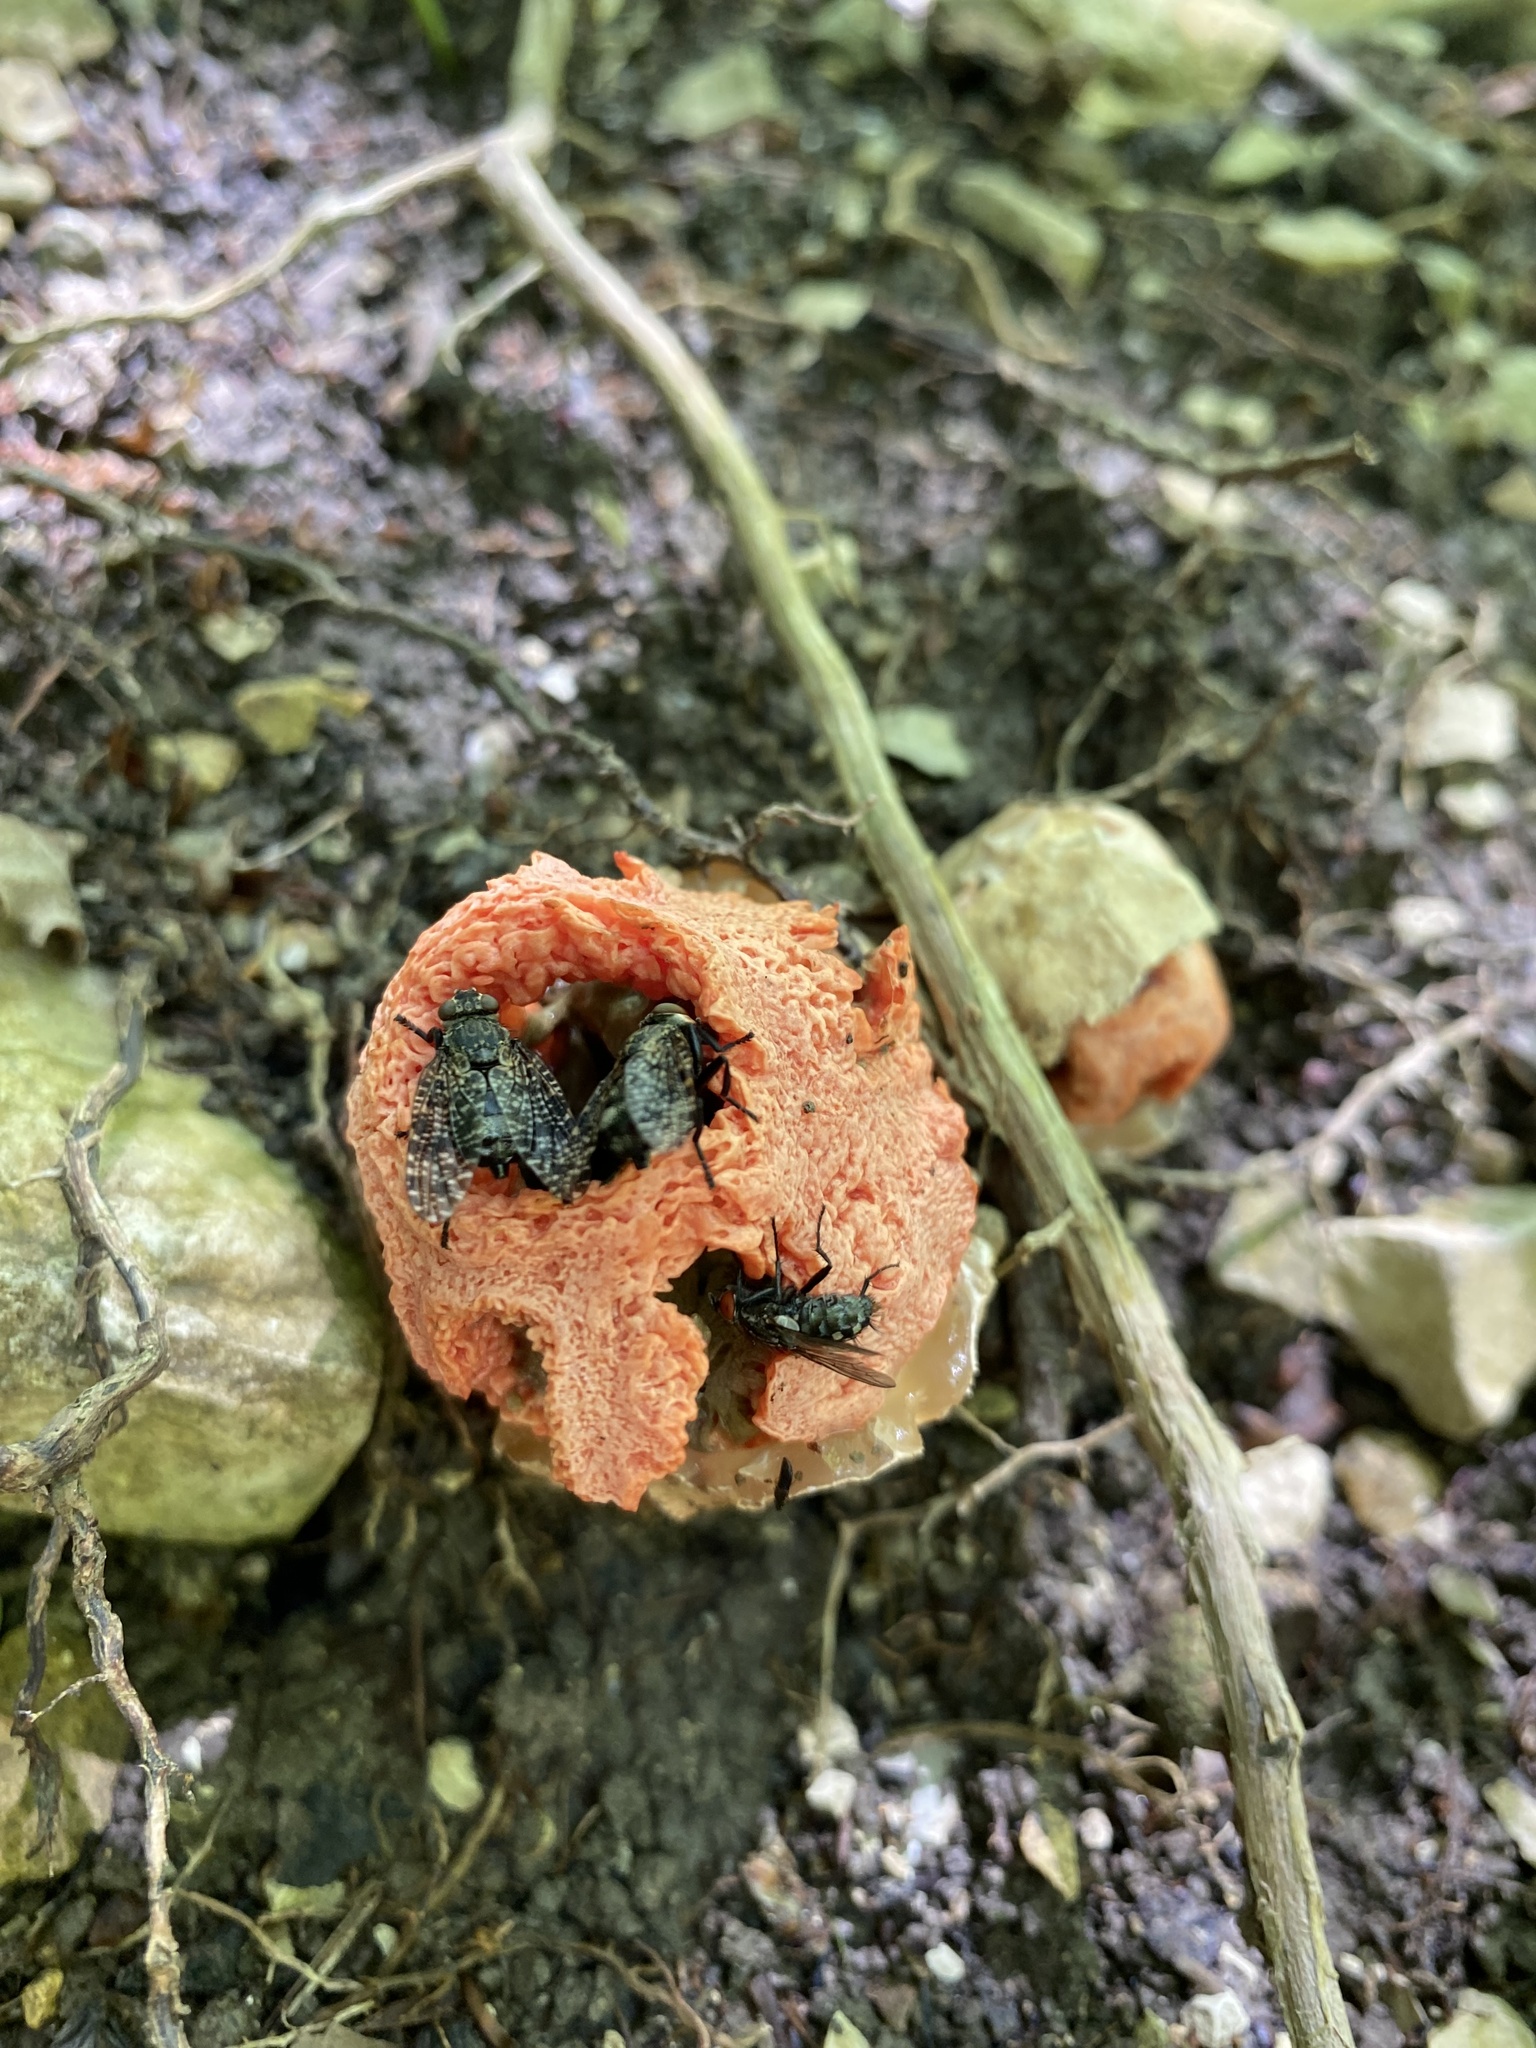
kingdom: Fungi
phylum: Basidiomycota
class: Agaricomycetes
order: Phallales
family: Phallaceae
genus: Clathrus
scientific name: Clathrus ruber
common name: Red cage
